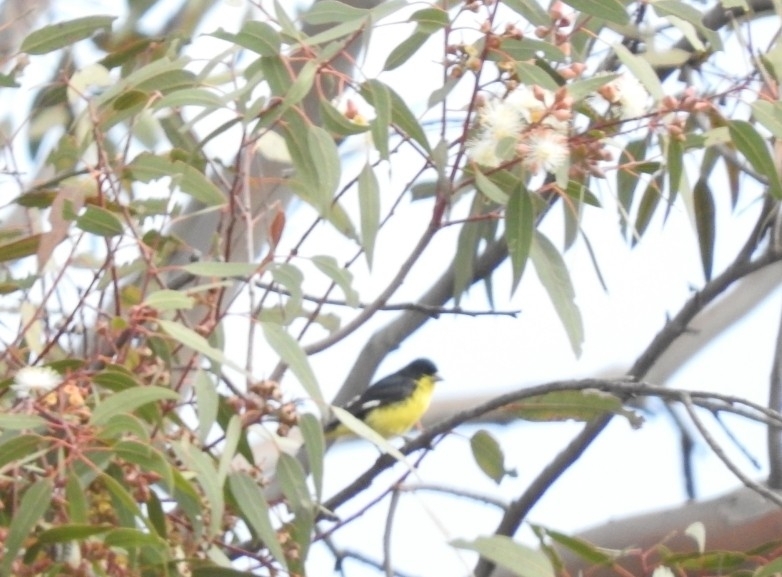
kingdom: Animalia
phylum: Chordata
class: Aves
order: Passeriformes
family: Fringillidae
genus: Spinus
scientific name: Spinus psaltria
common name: Lesser goldfinch
